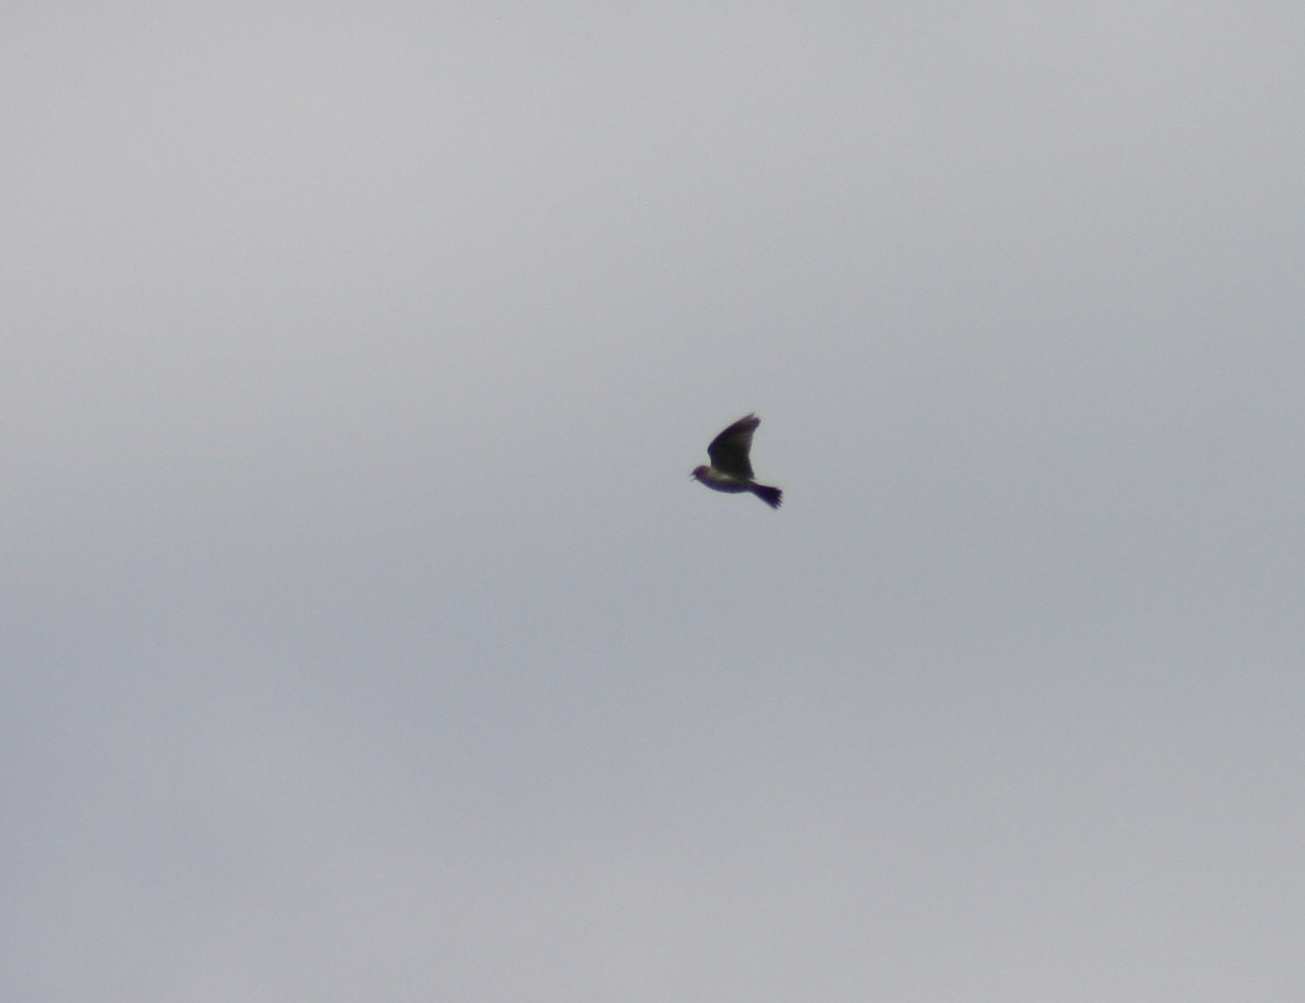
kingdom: Animalia
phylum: Chordata
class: Aves
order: Passeriformes
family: Alaudidae
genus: Alauda
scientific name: Alauda arvensis
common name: Eurasian skylark
